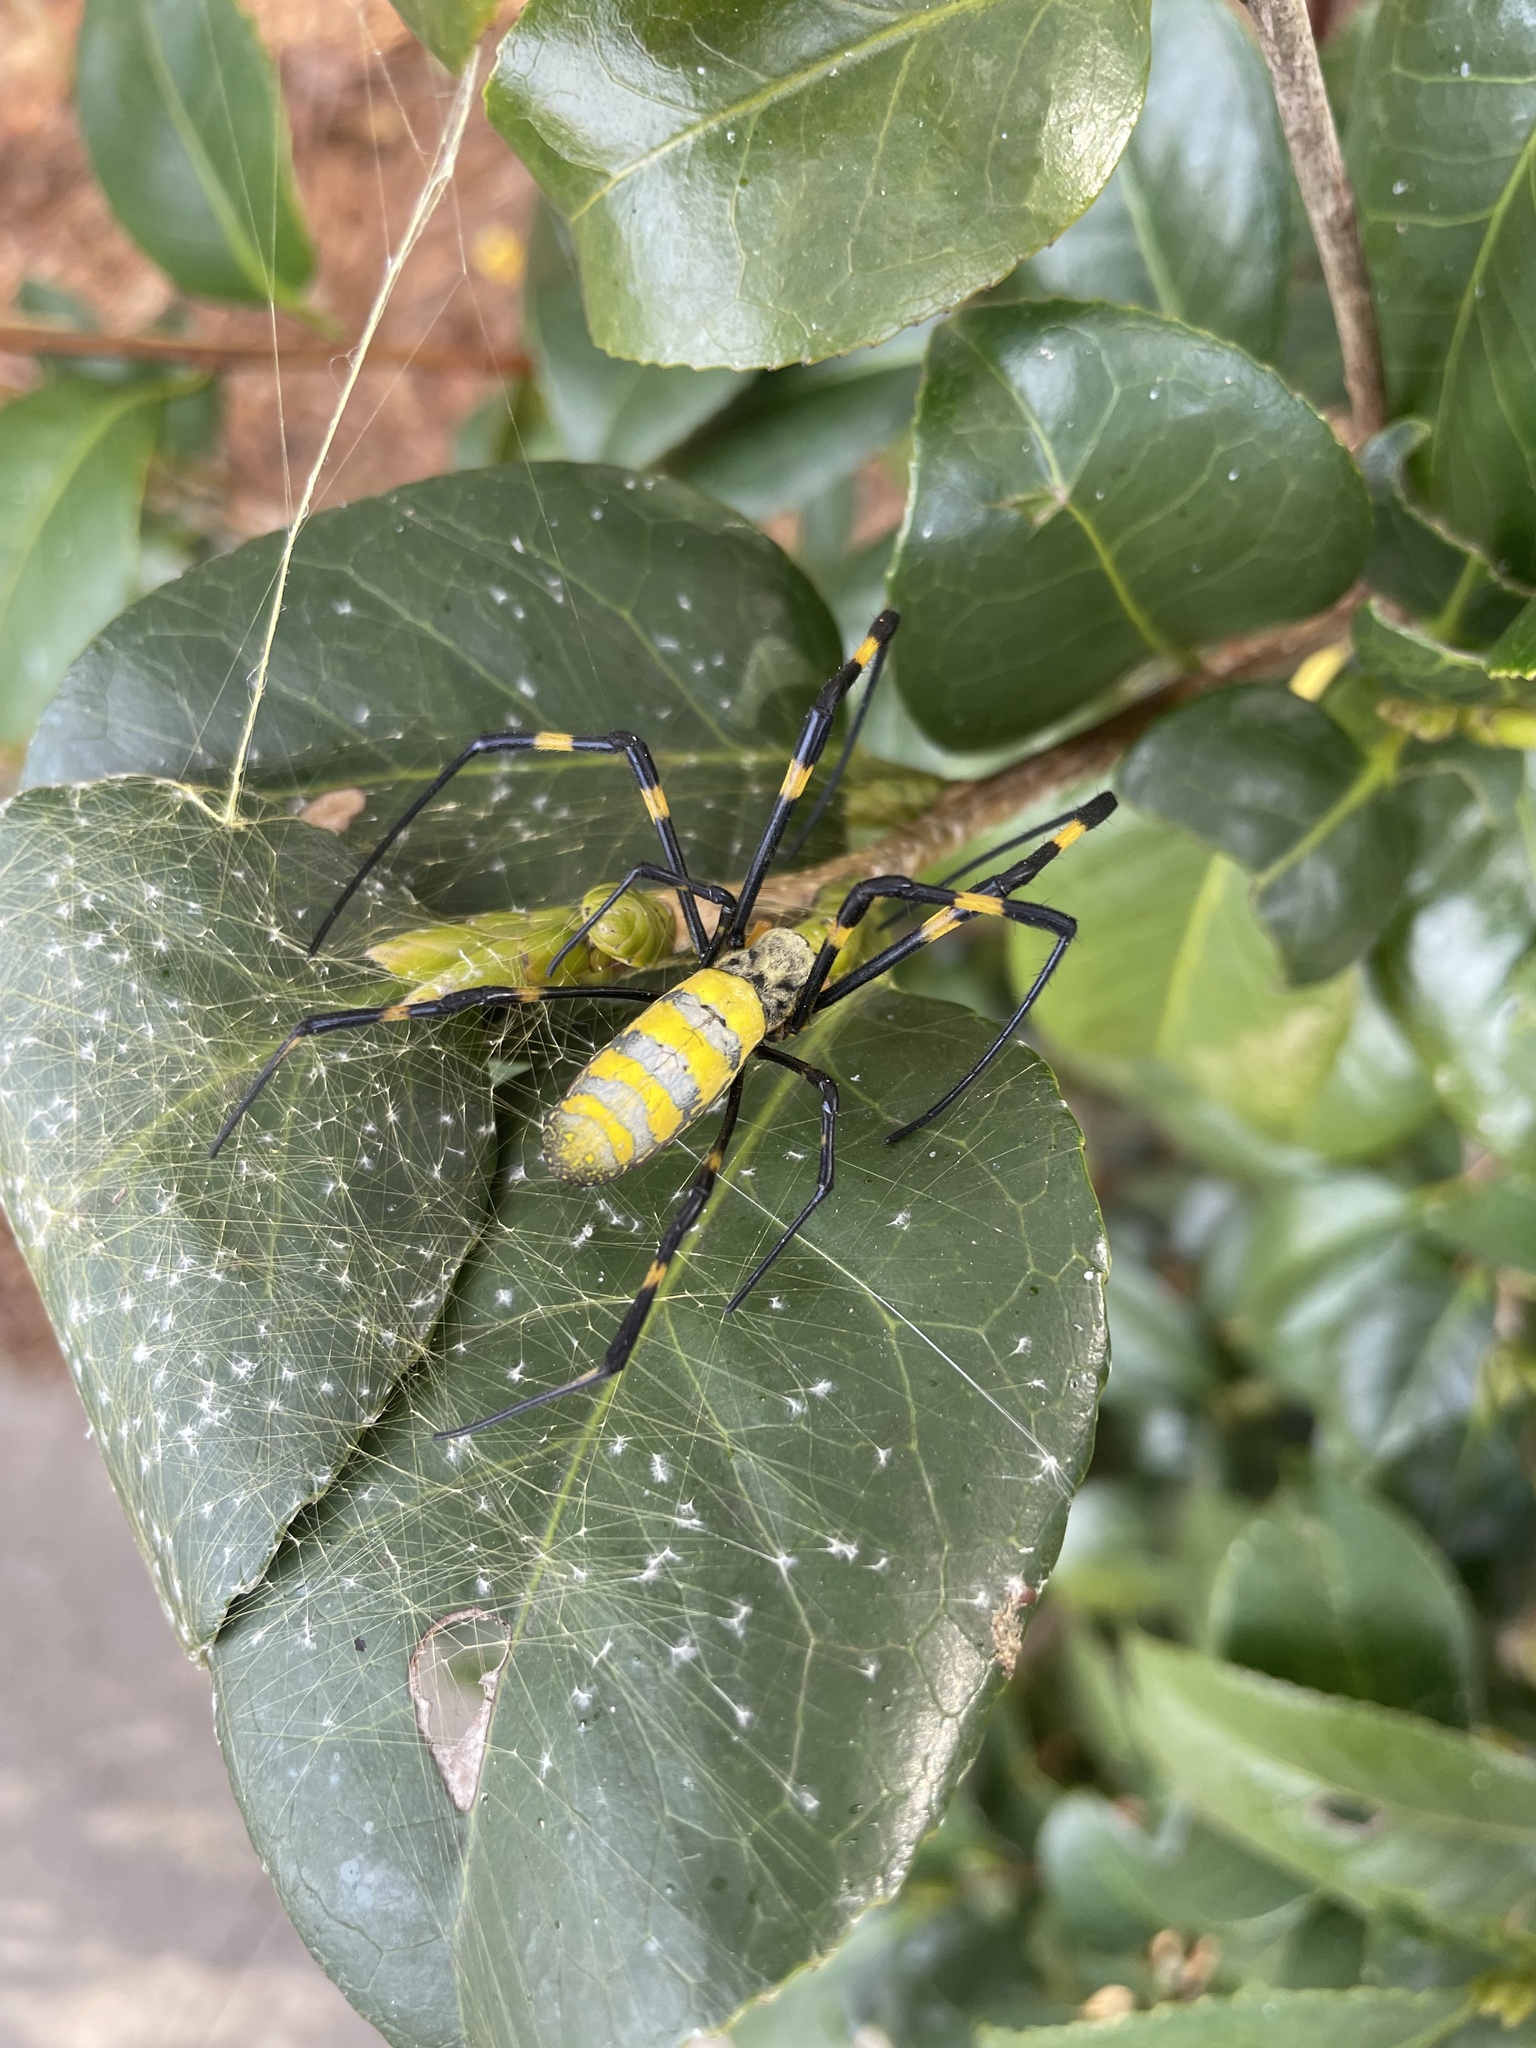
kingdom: Animalia
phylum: Arthropoda
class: Arachnida
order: Araneae
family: Araneidae
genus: Trichonephila
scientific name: Trichonephila clavata
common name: Jorō spider
